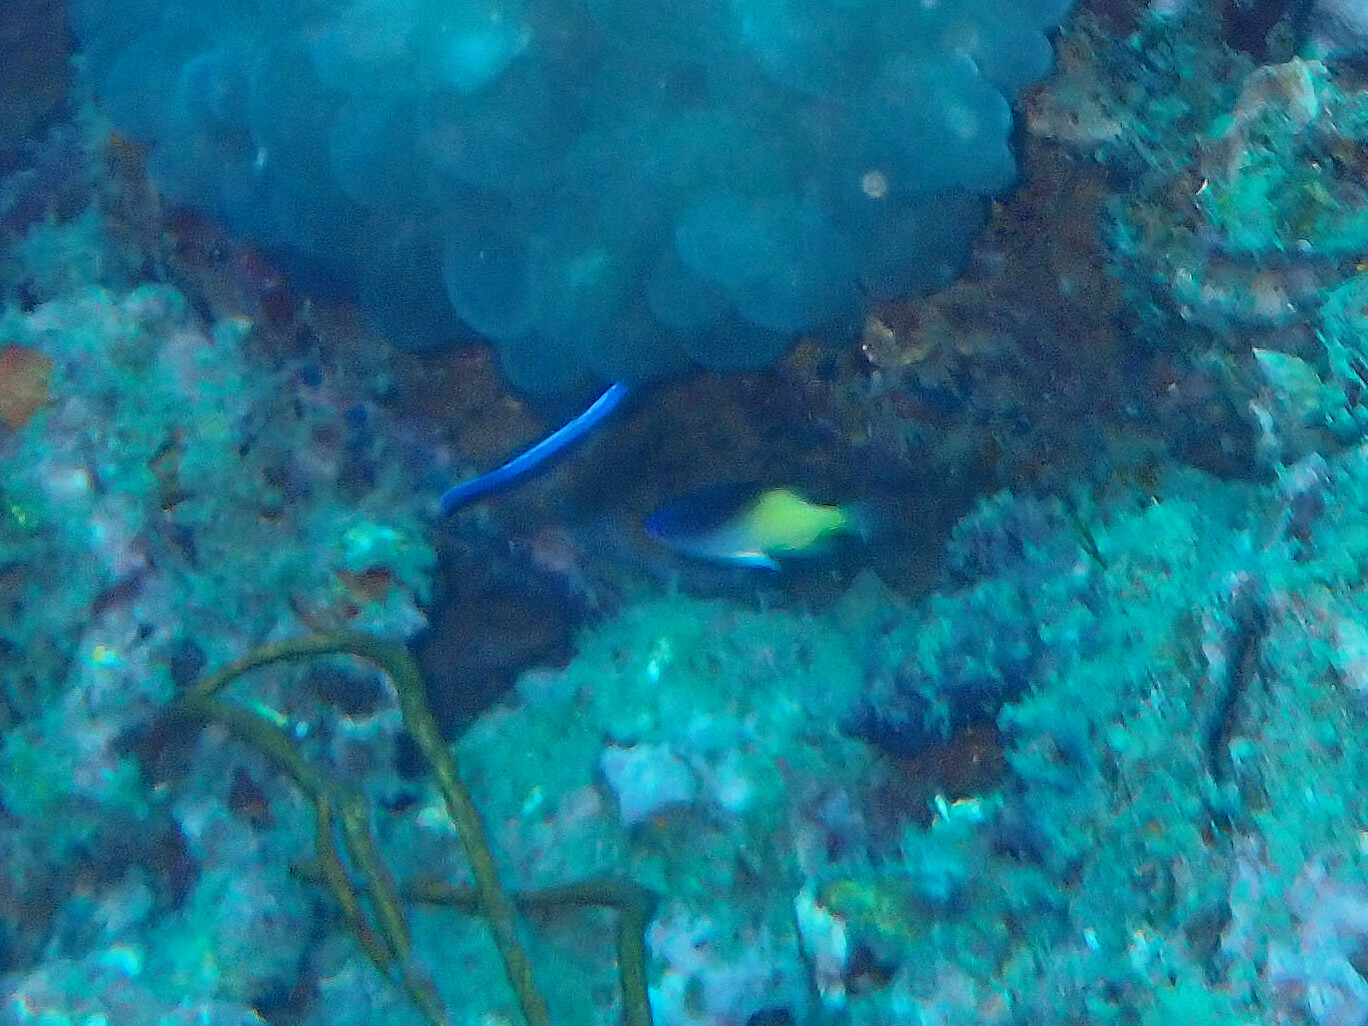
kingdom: Animalia
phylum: Chordata
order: Perciformes
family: Pomacentridae
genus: Chrysiptera
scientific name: Chrysiptera rollandi
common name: Rolland's demoiselle
